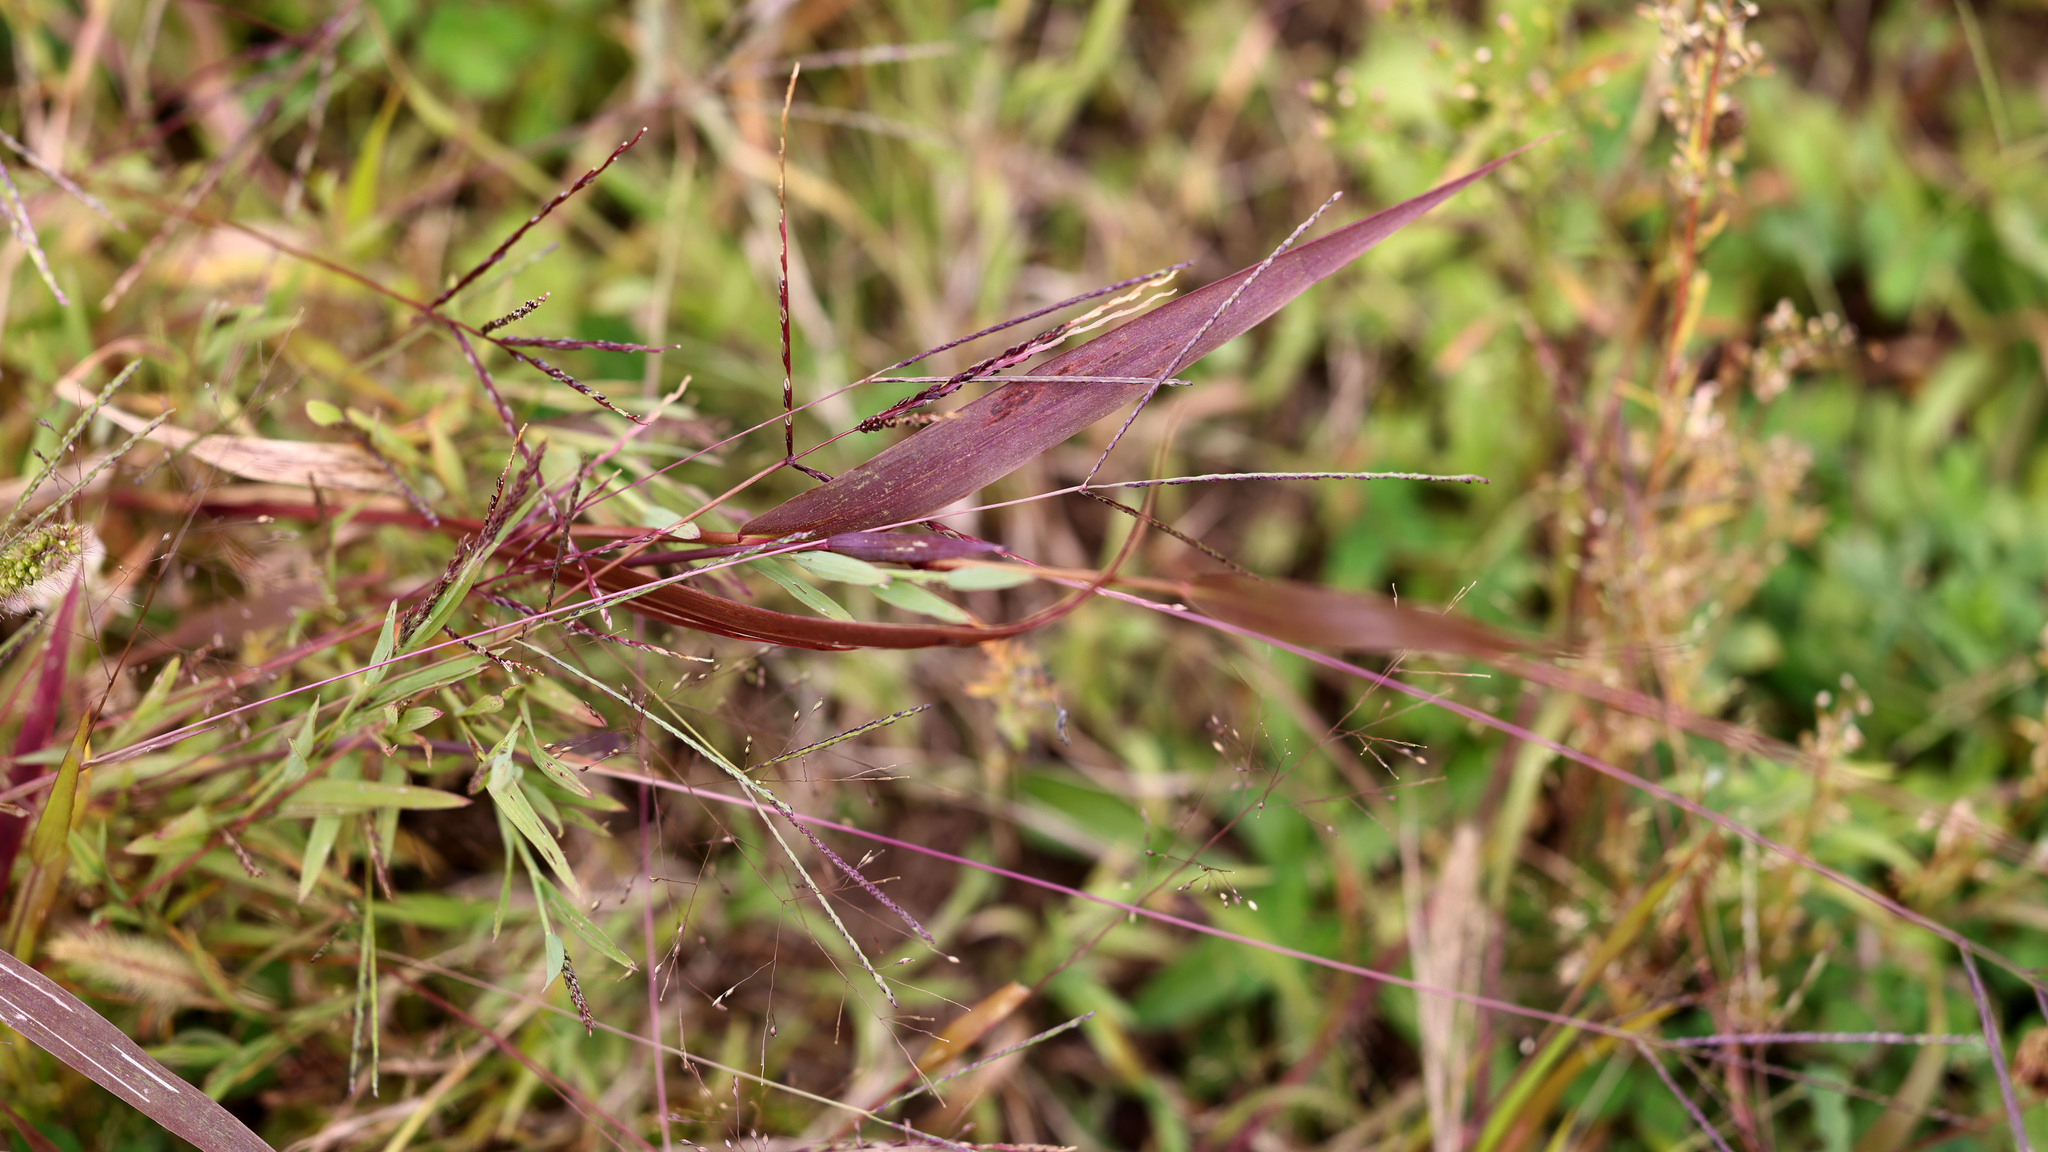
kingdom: Plantae
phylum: Tracheophyta
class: Liliopsida
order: Poales
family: Poaceae
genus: Digitaria
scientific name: Digitaria ischaemum
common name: Smooth crabgrass
